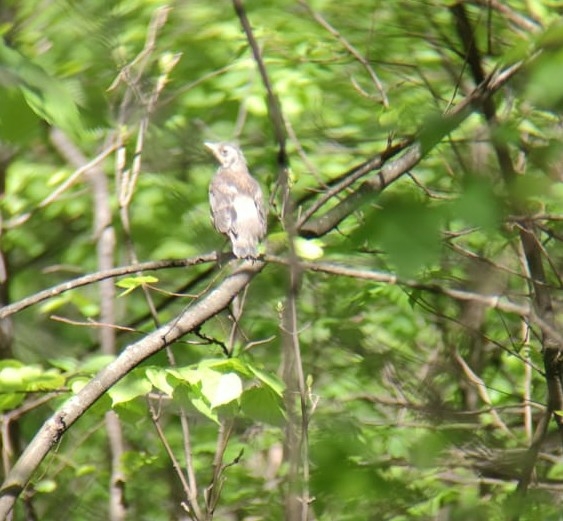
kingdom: Animalia
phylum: Chordata
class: Aves
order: Passeriformes
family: Turdidae
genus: Turdus
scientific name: Turdus pilaris
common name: Fieldfare
